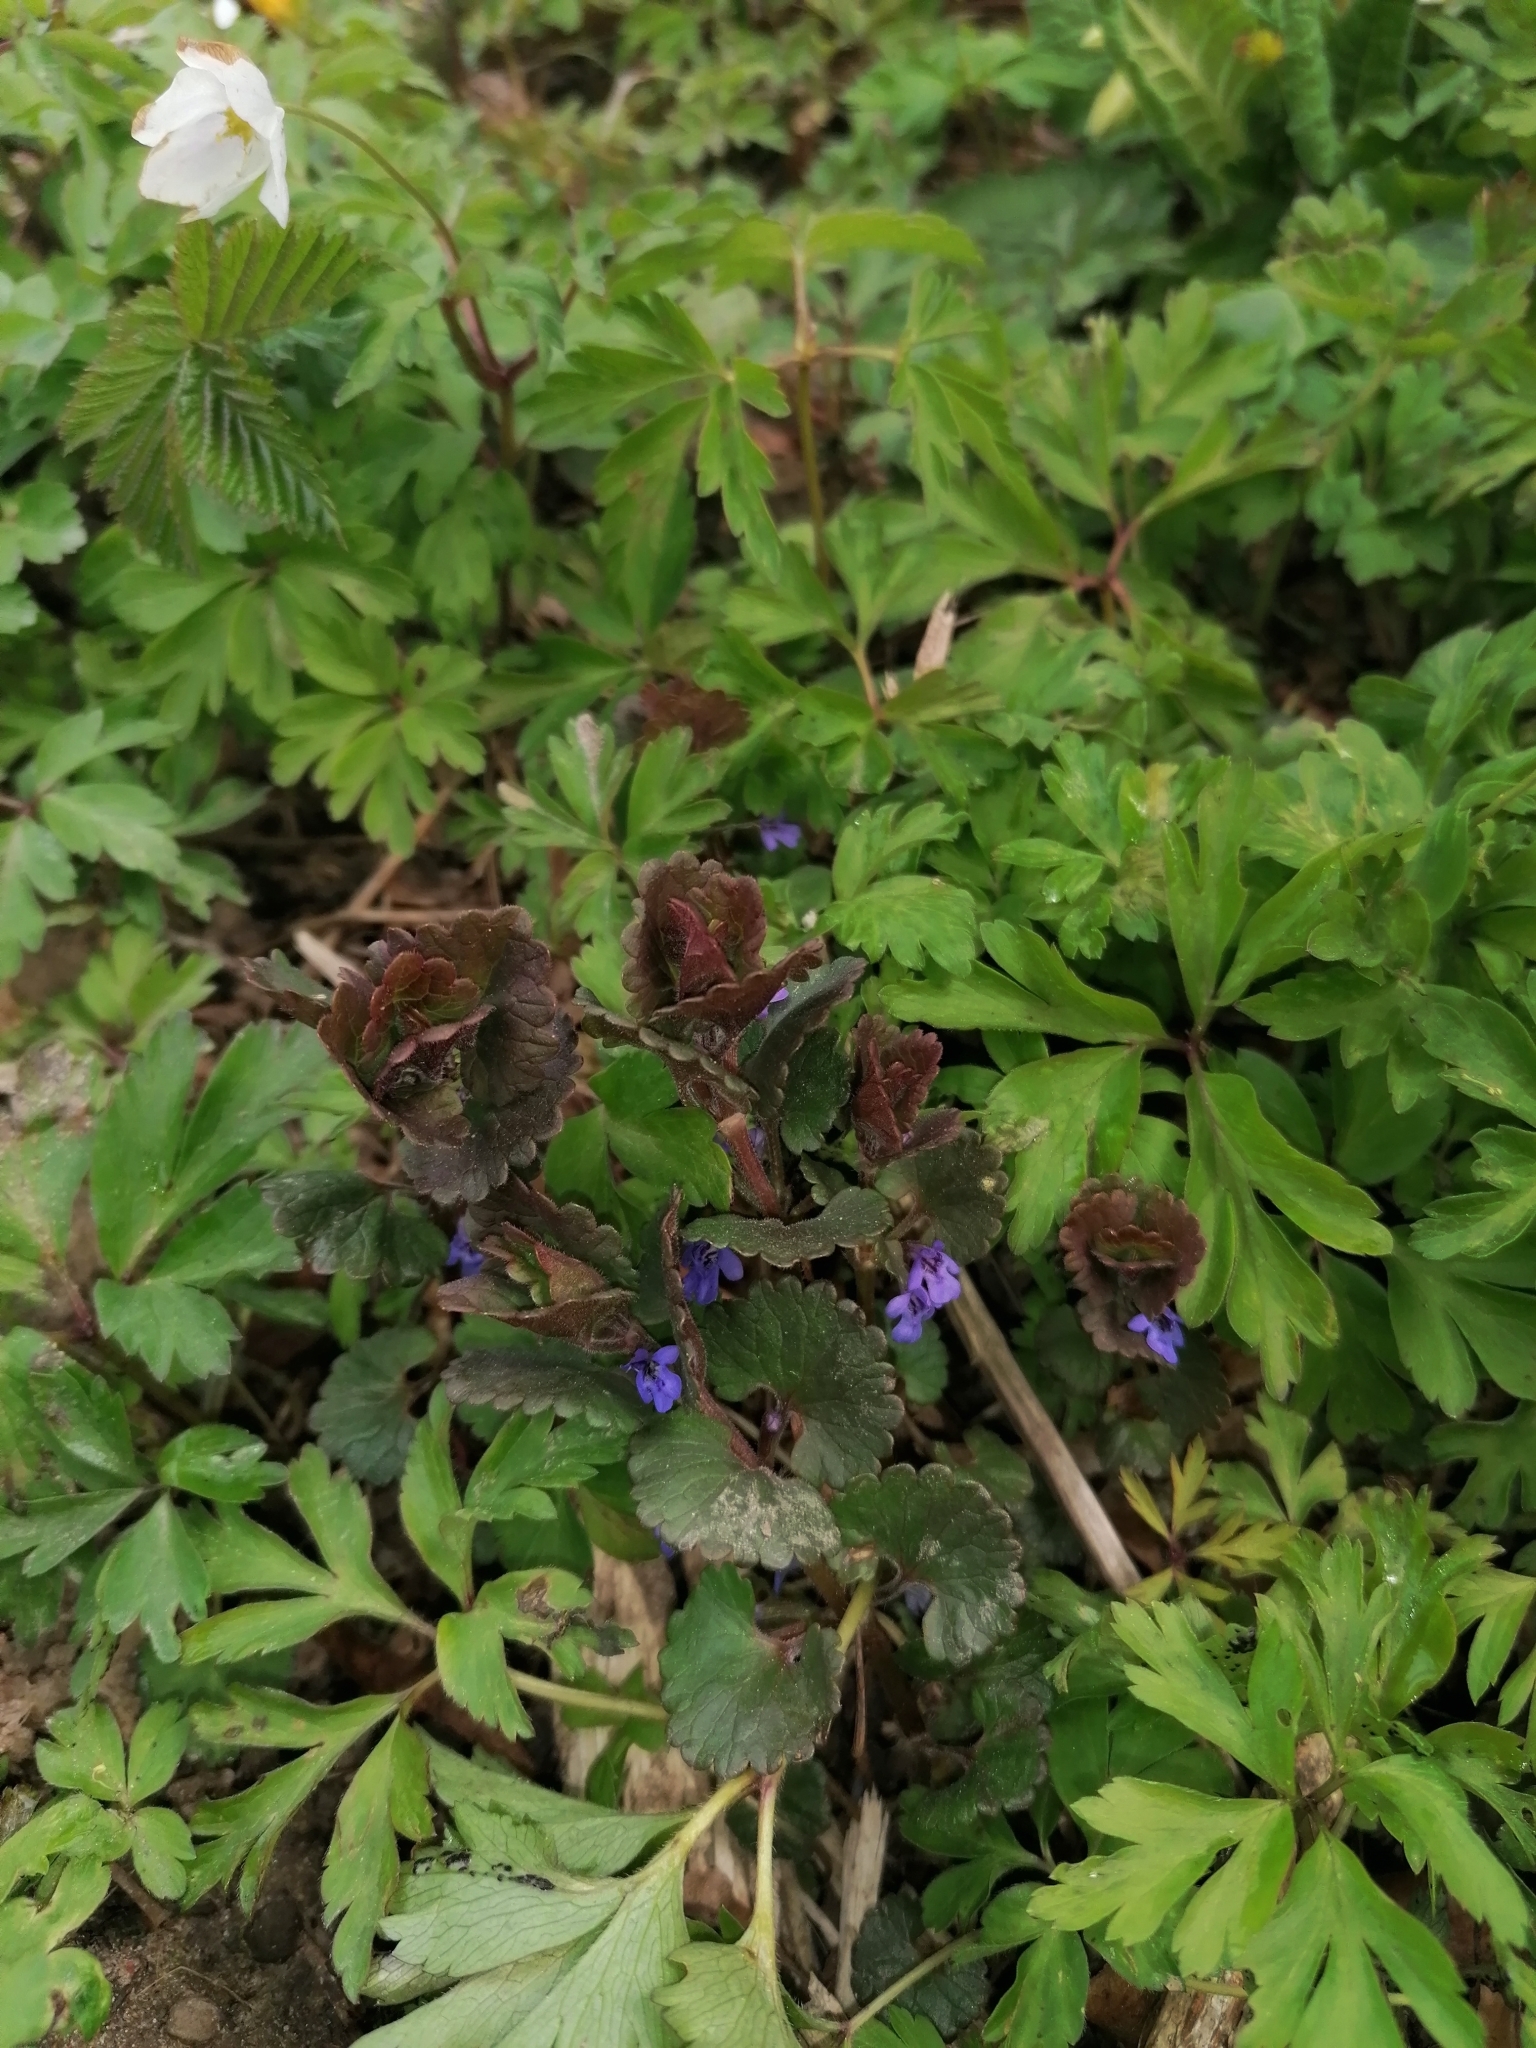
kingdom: Plantae
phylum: Tracheophyta
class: Magnoliopsida
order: Lamiales
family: Lamiaceae
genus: Glechoma
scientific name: Glechoma hederacea
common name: Ground ivy
